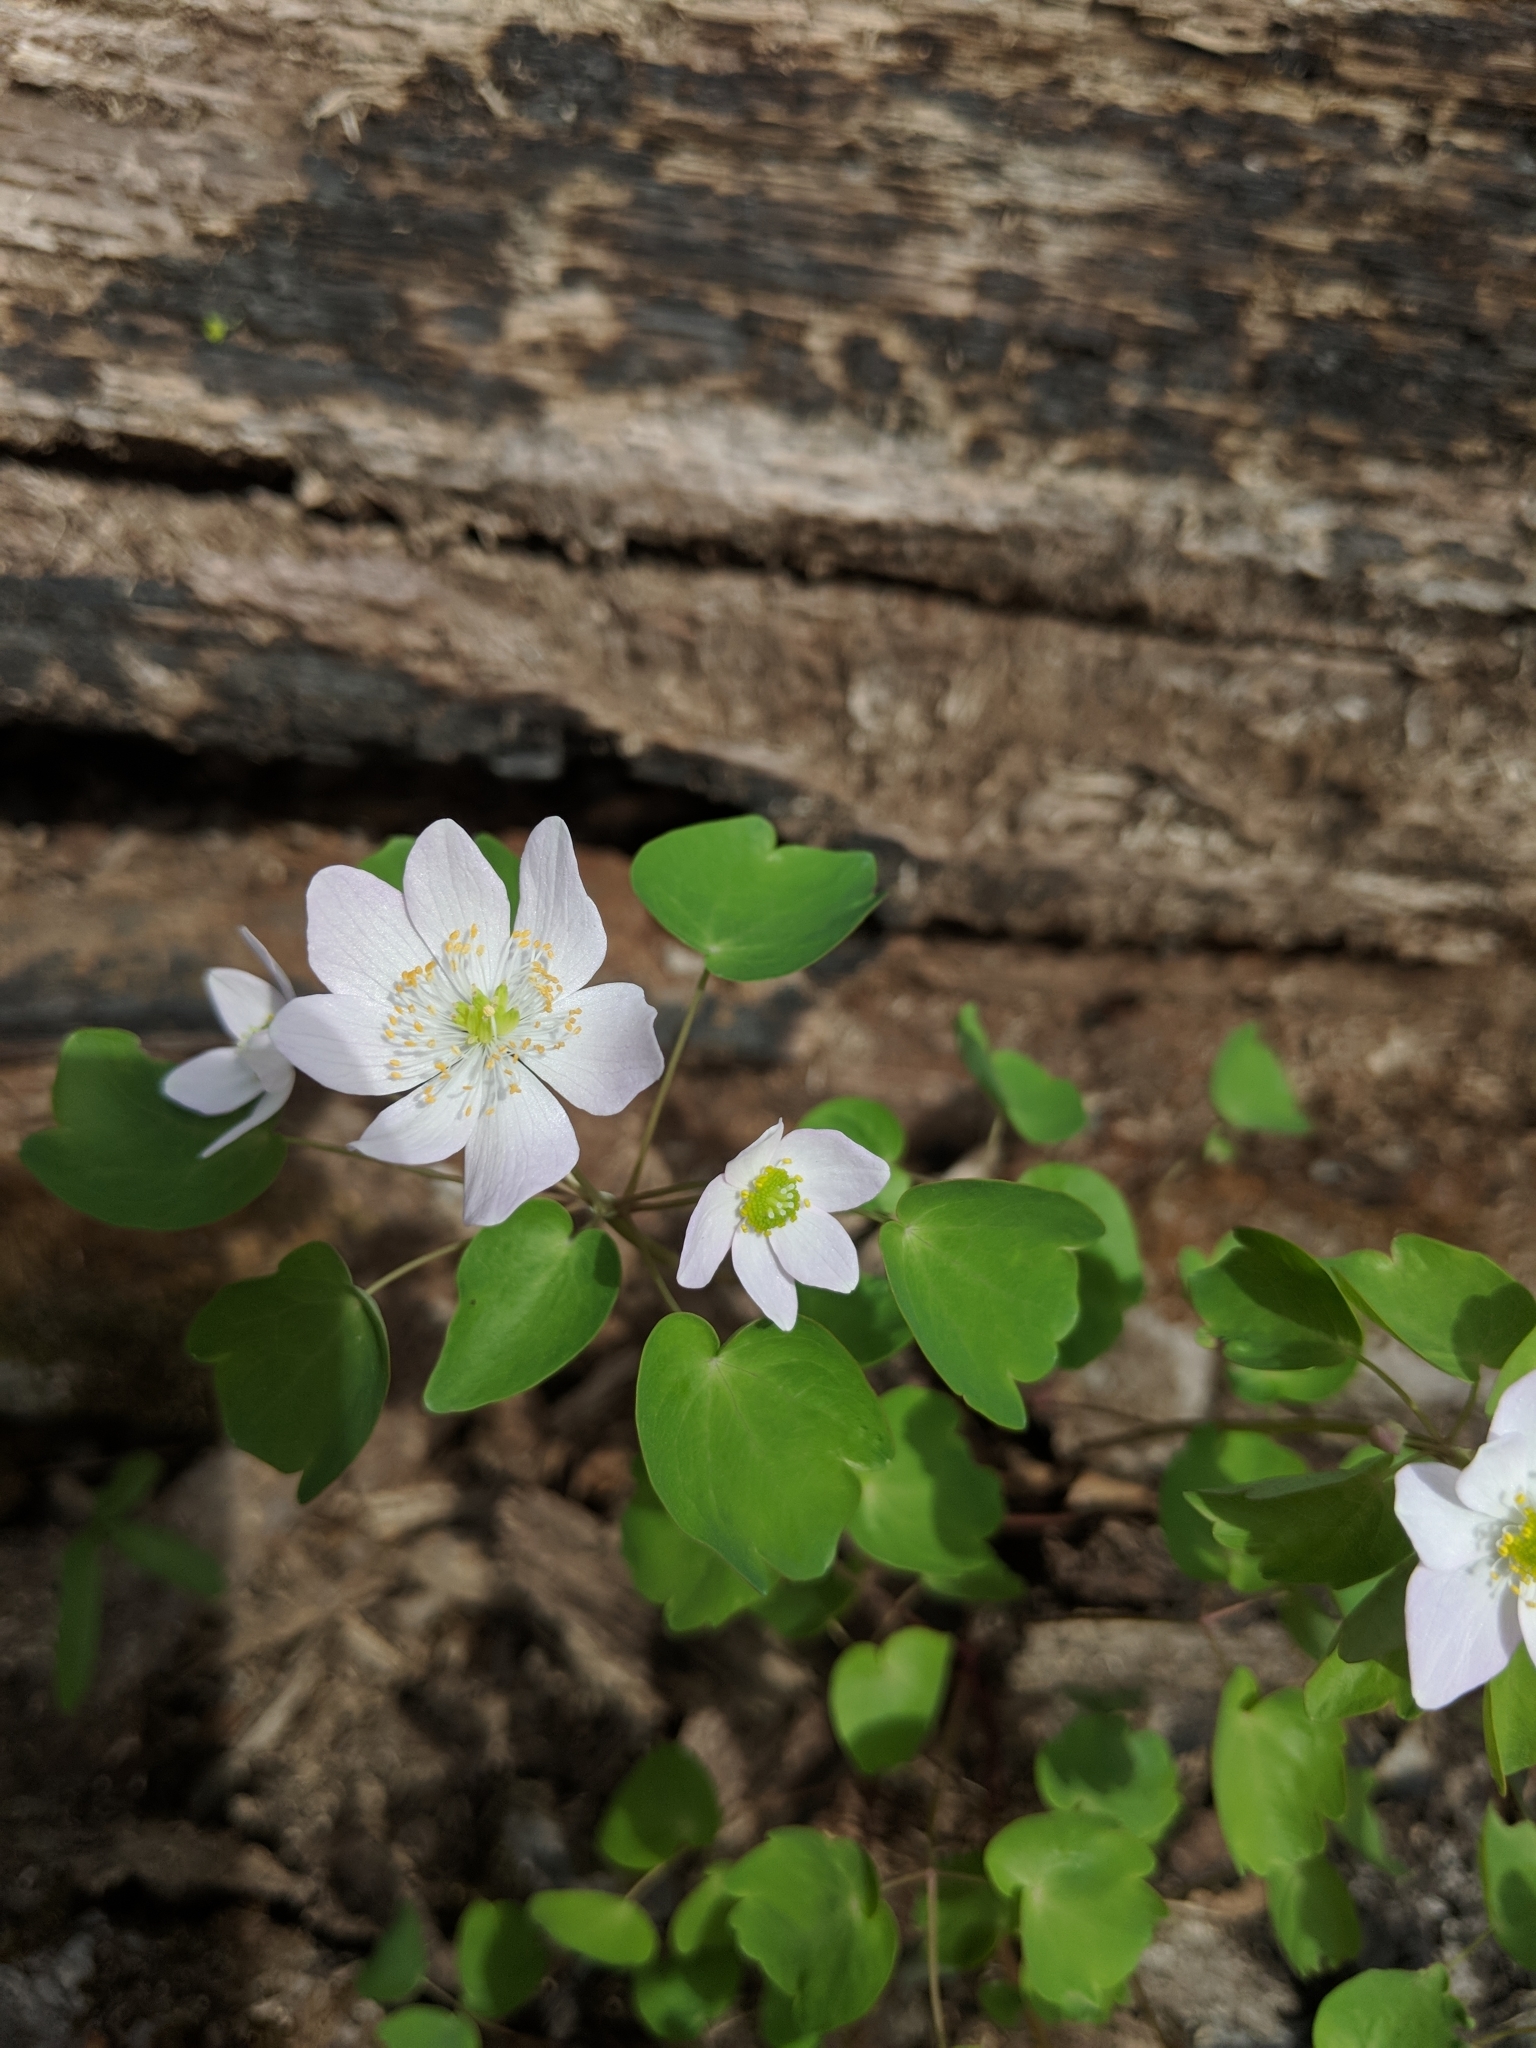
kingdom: Plantae
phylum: Tracheophyta
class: Magnoliopsida
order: Ranunculales
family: Ranunculaceae
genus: Thalictrum
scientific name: Thalictrum thalictroides
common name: Rue-anemone
